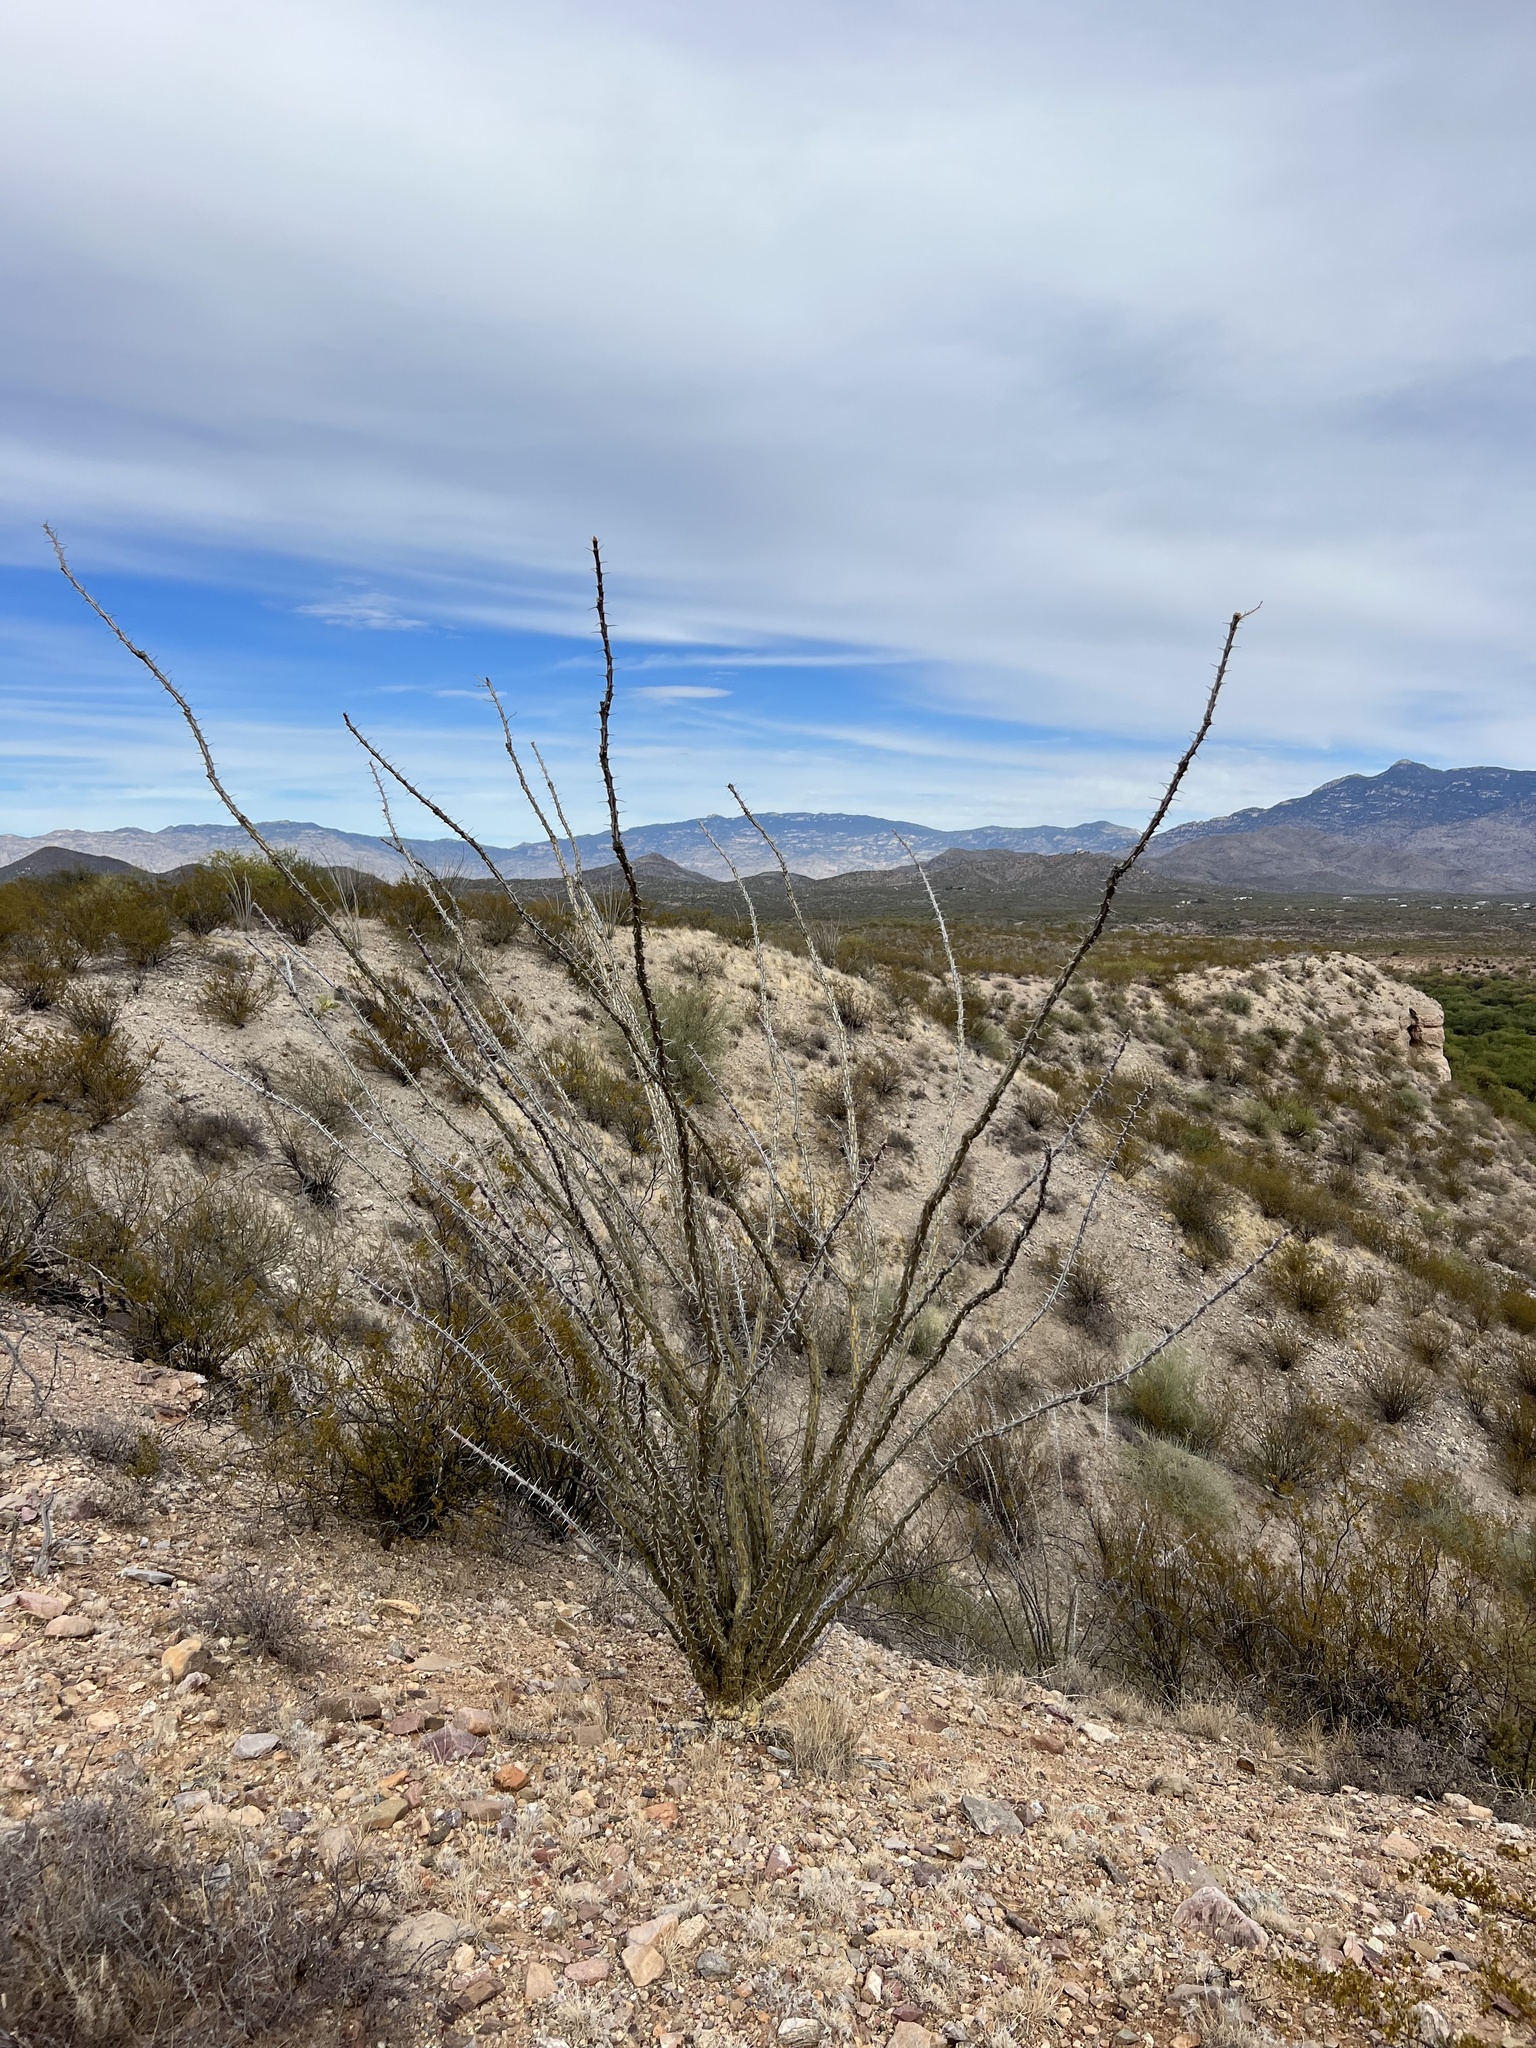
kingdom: Plantae
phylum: Tracheophyta
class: Magnoliopsida
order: Ericales
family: Fouquieriaceae
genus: Fouquieria
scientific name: Fouquieria splendens
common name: Vine-cactus
